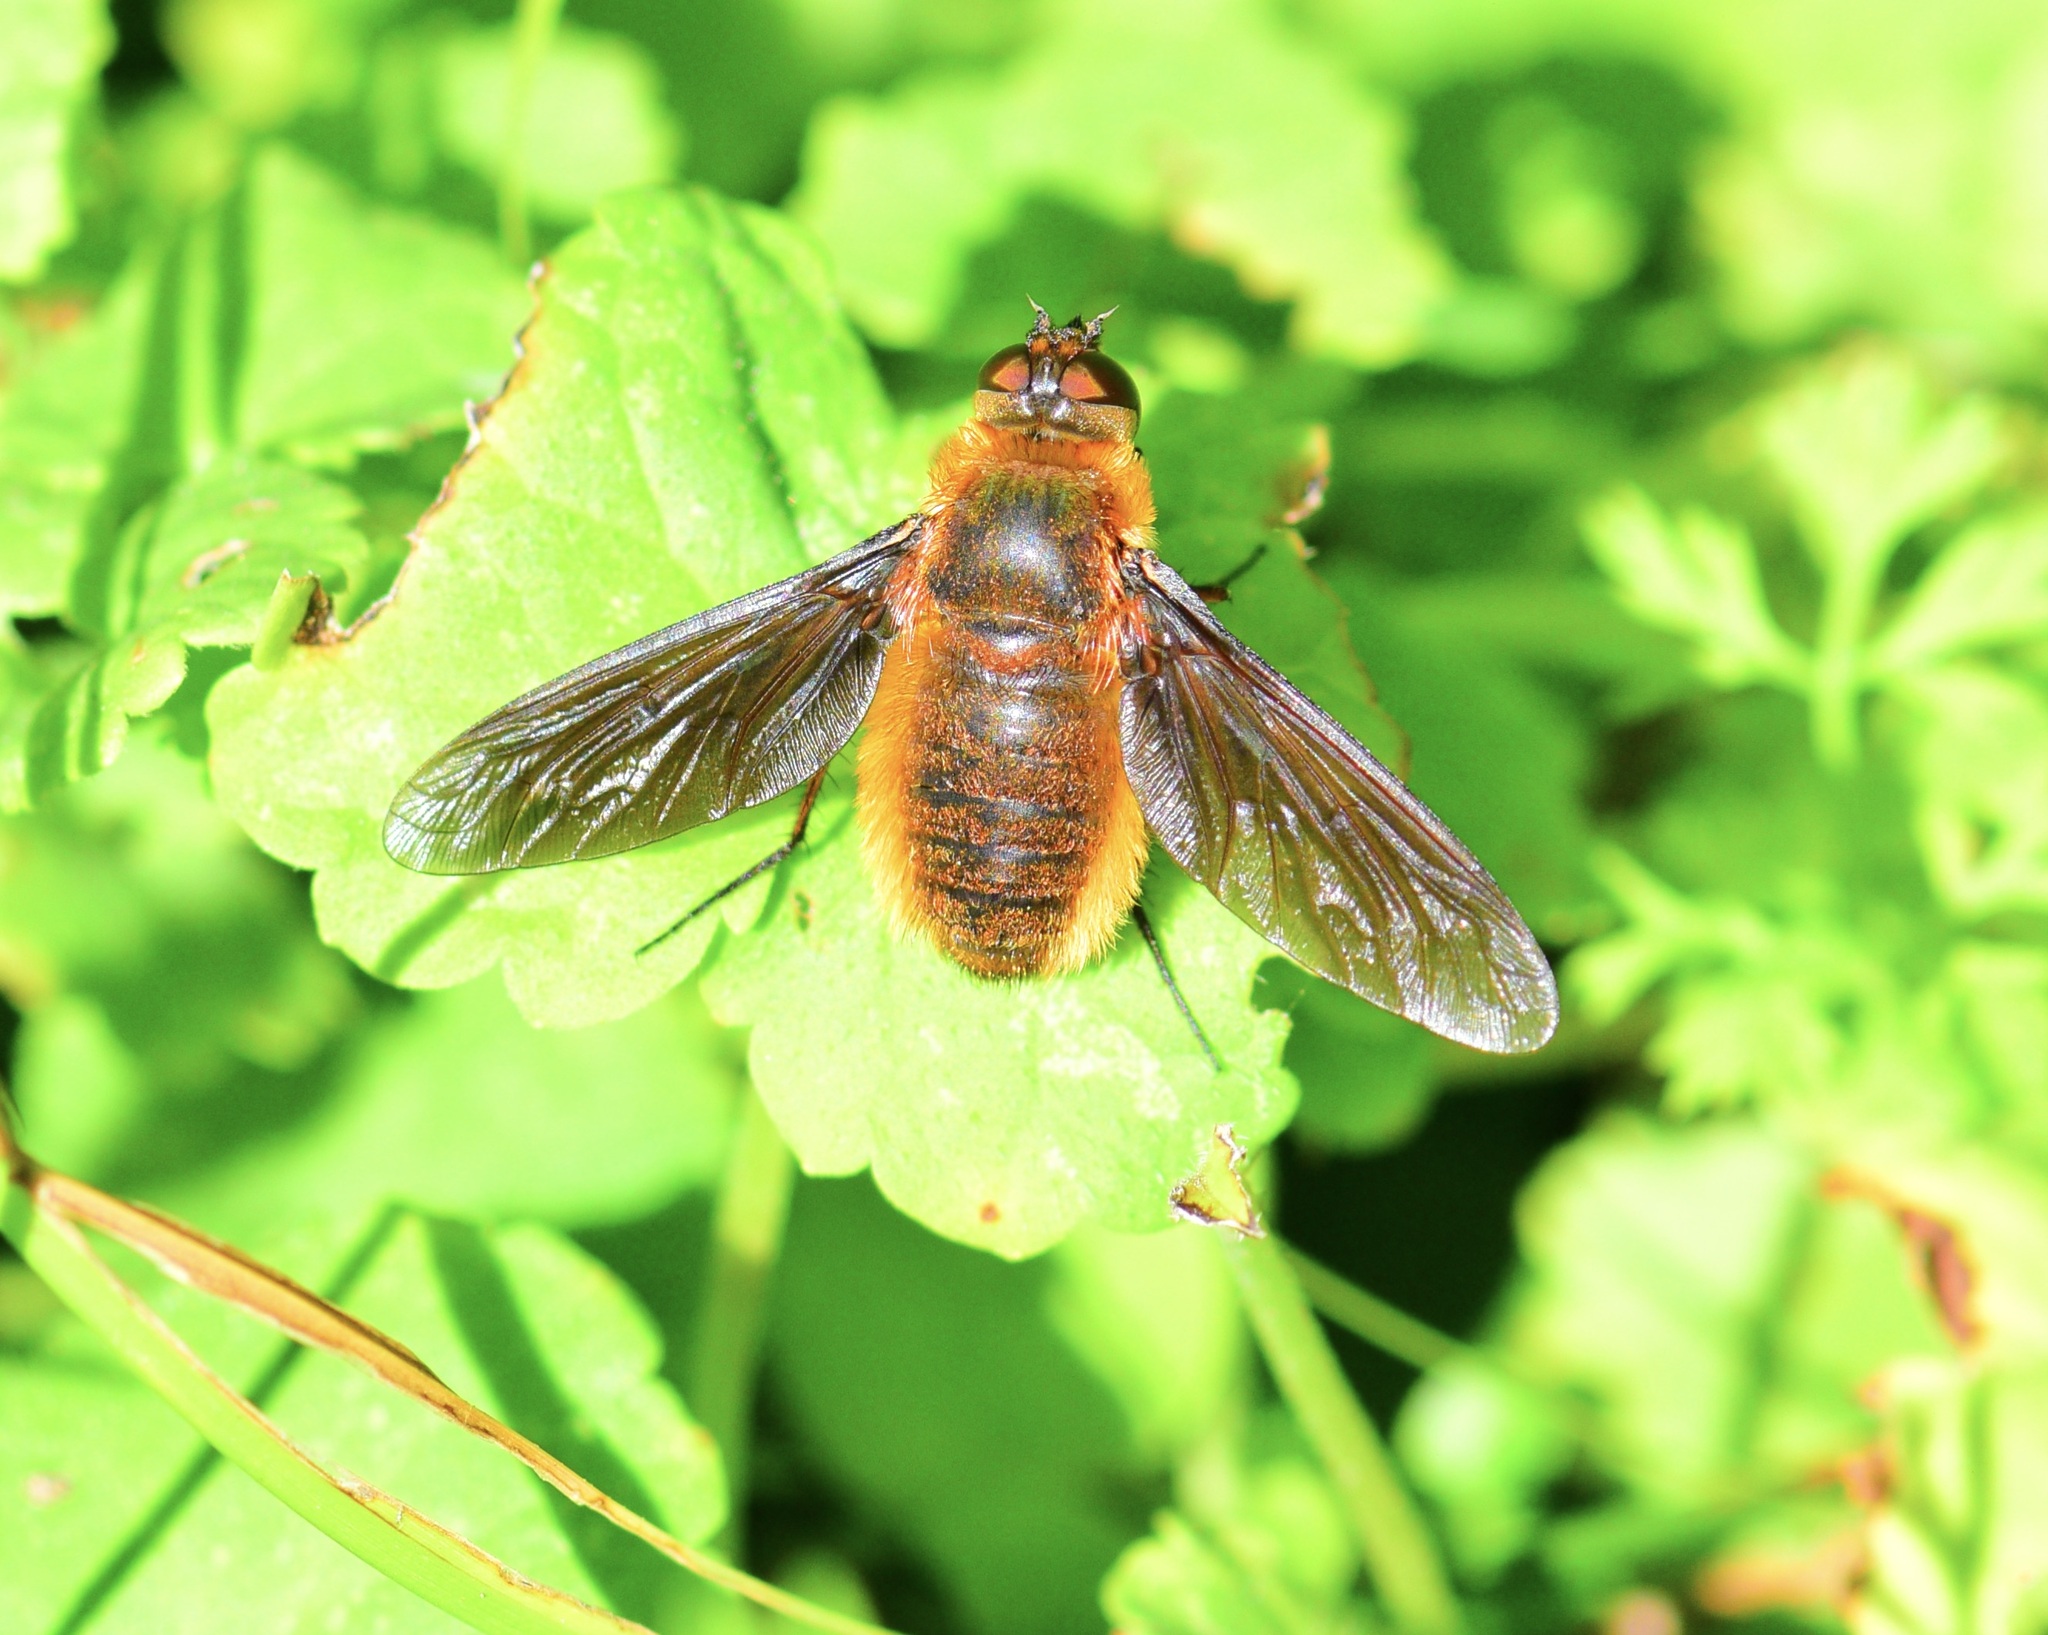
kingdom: Animalia
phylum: Arthropoda
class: Insecta
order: Diptera
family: Bombyliidae
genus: Poecilanthrax
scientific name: Poecilanthrax tegminipennis
